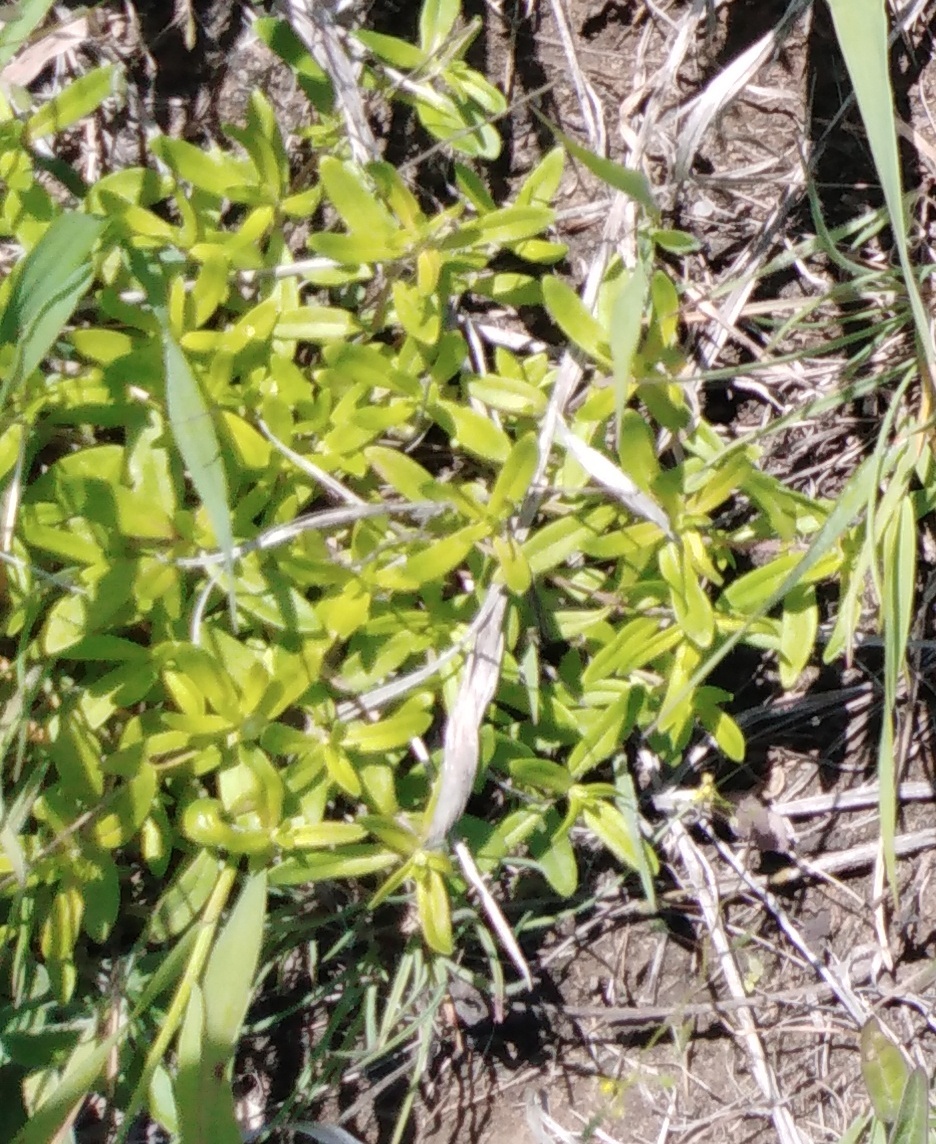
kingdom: Plantae
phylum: Tracheophyta
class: Magnoliopsida
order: Lamiales
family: Lamiaceae
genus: Thymus
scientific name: Thymus pannonicus
